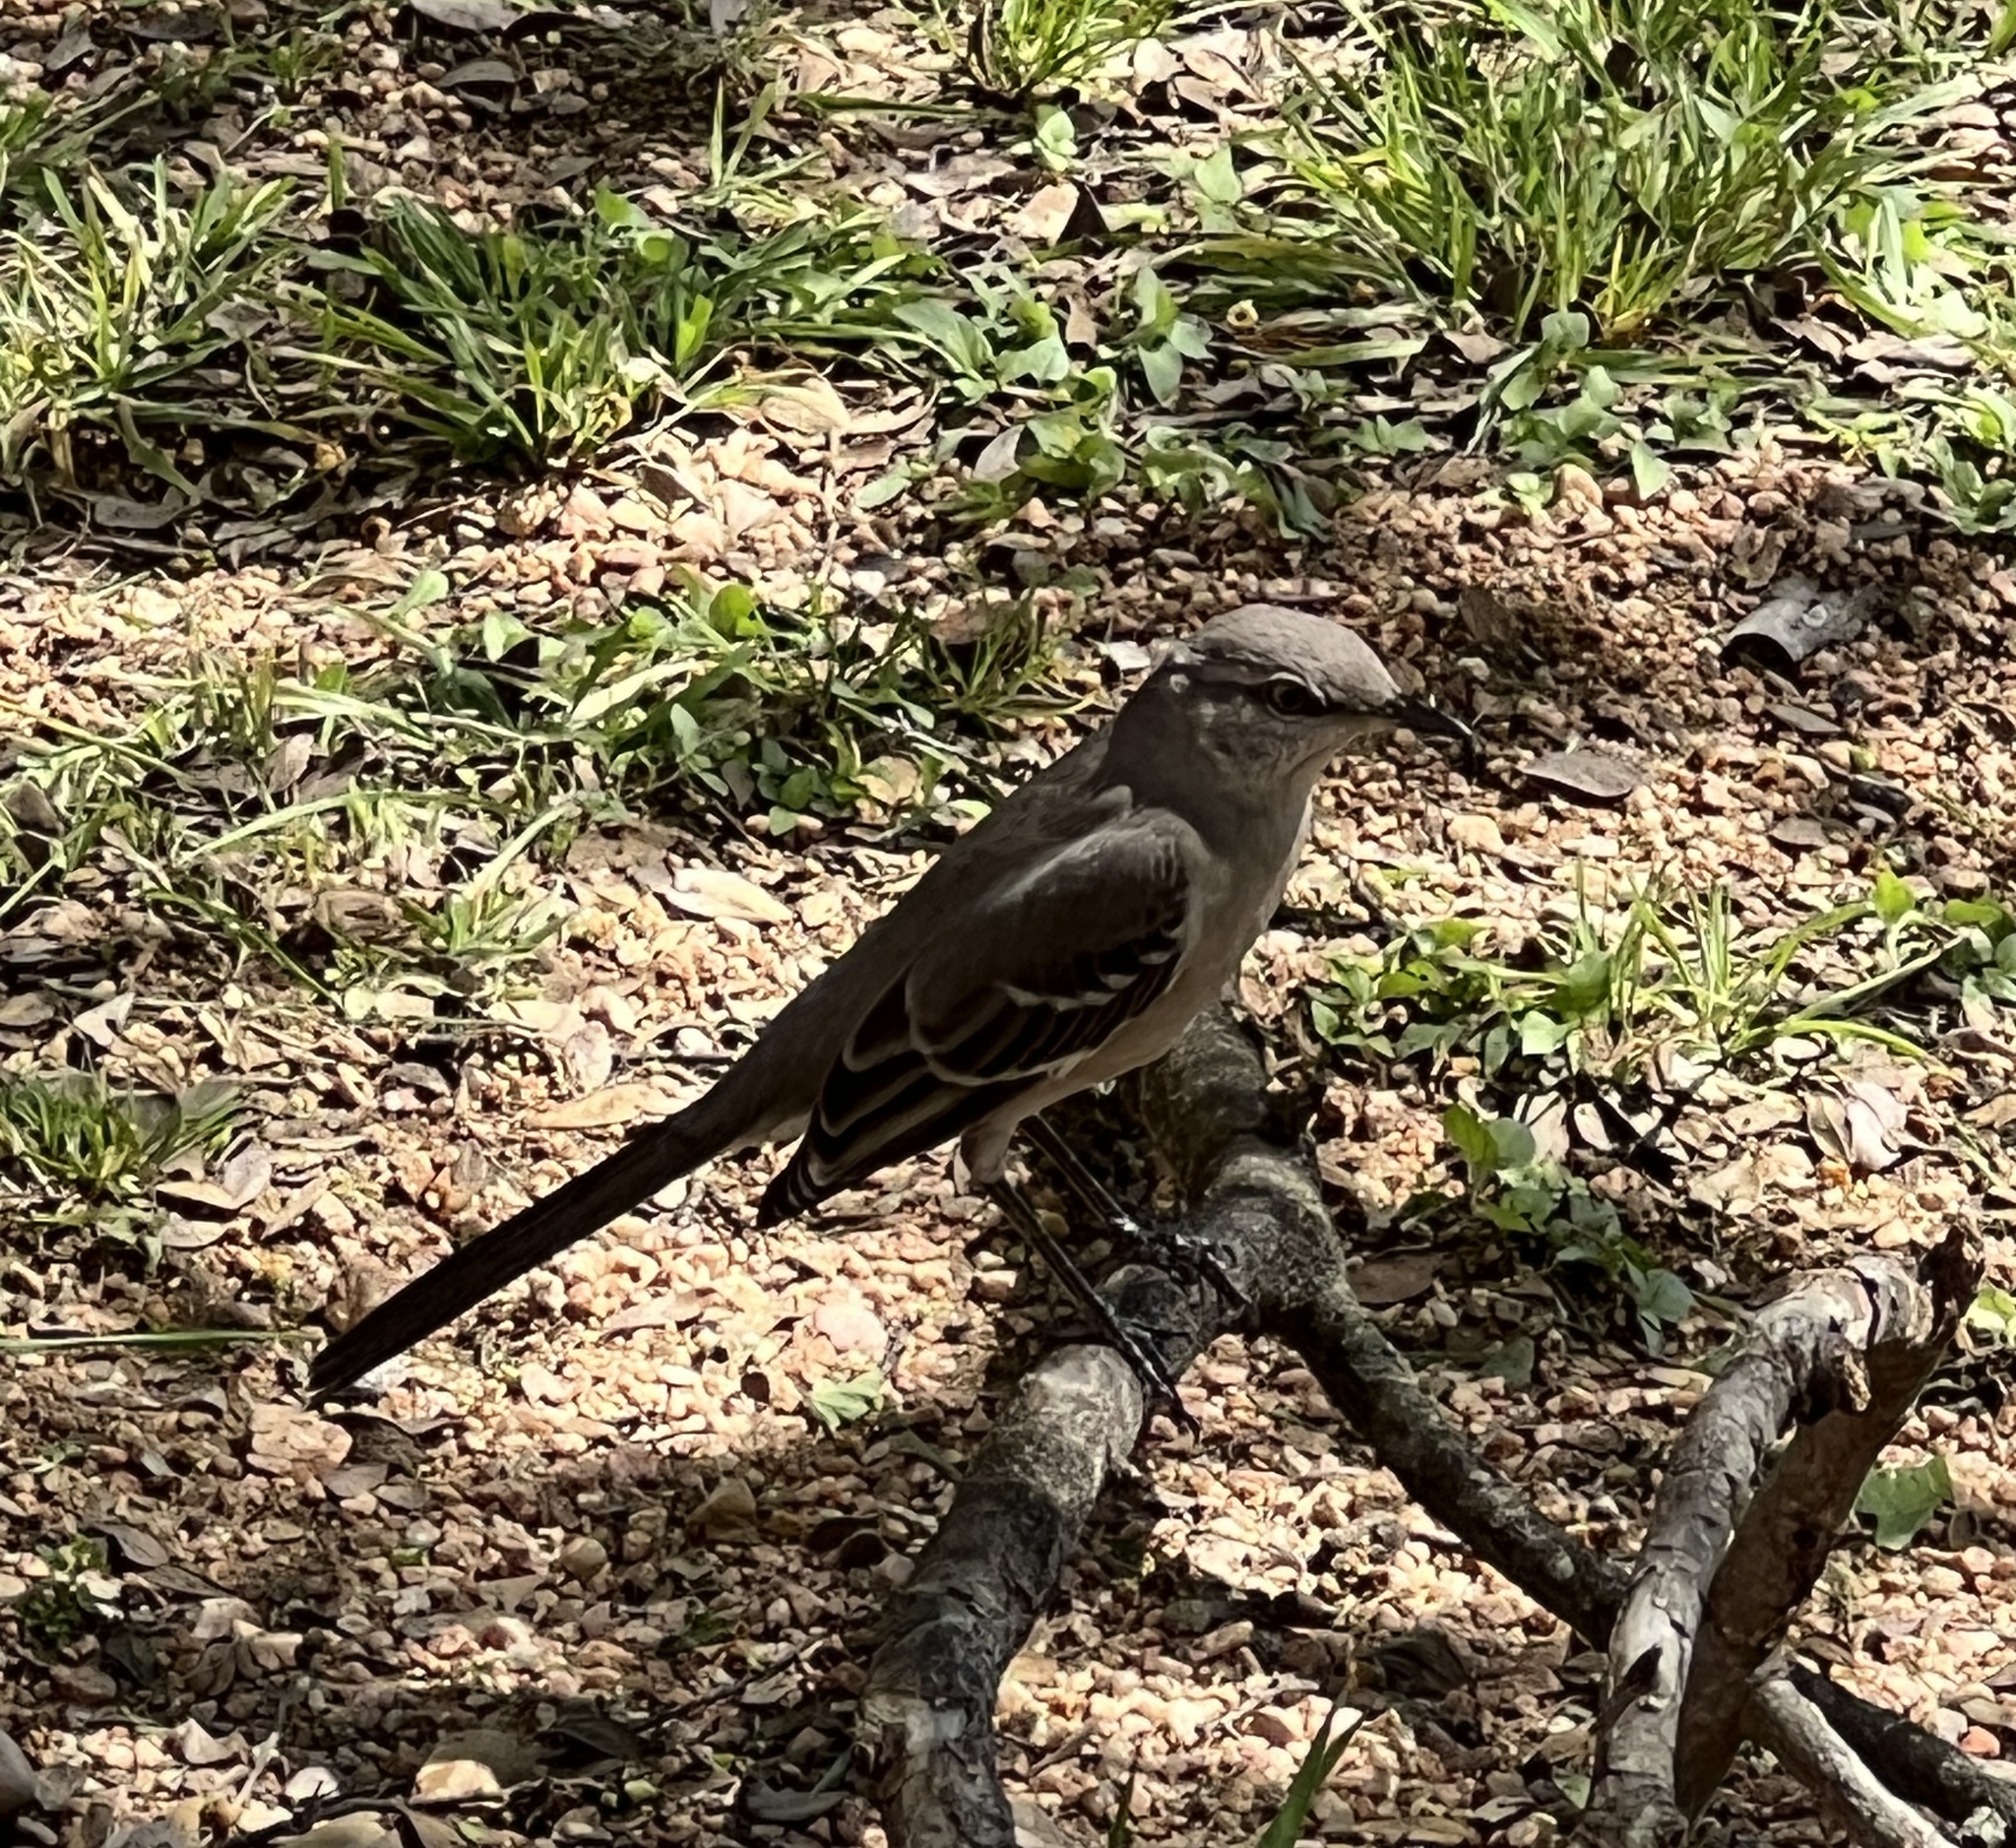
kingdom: Animalia
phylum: Chordata
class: Aves
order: Passeriformes
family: Mimidae
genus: Mimus
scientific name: Mimus polyglottos
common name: Northern mockingbird
